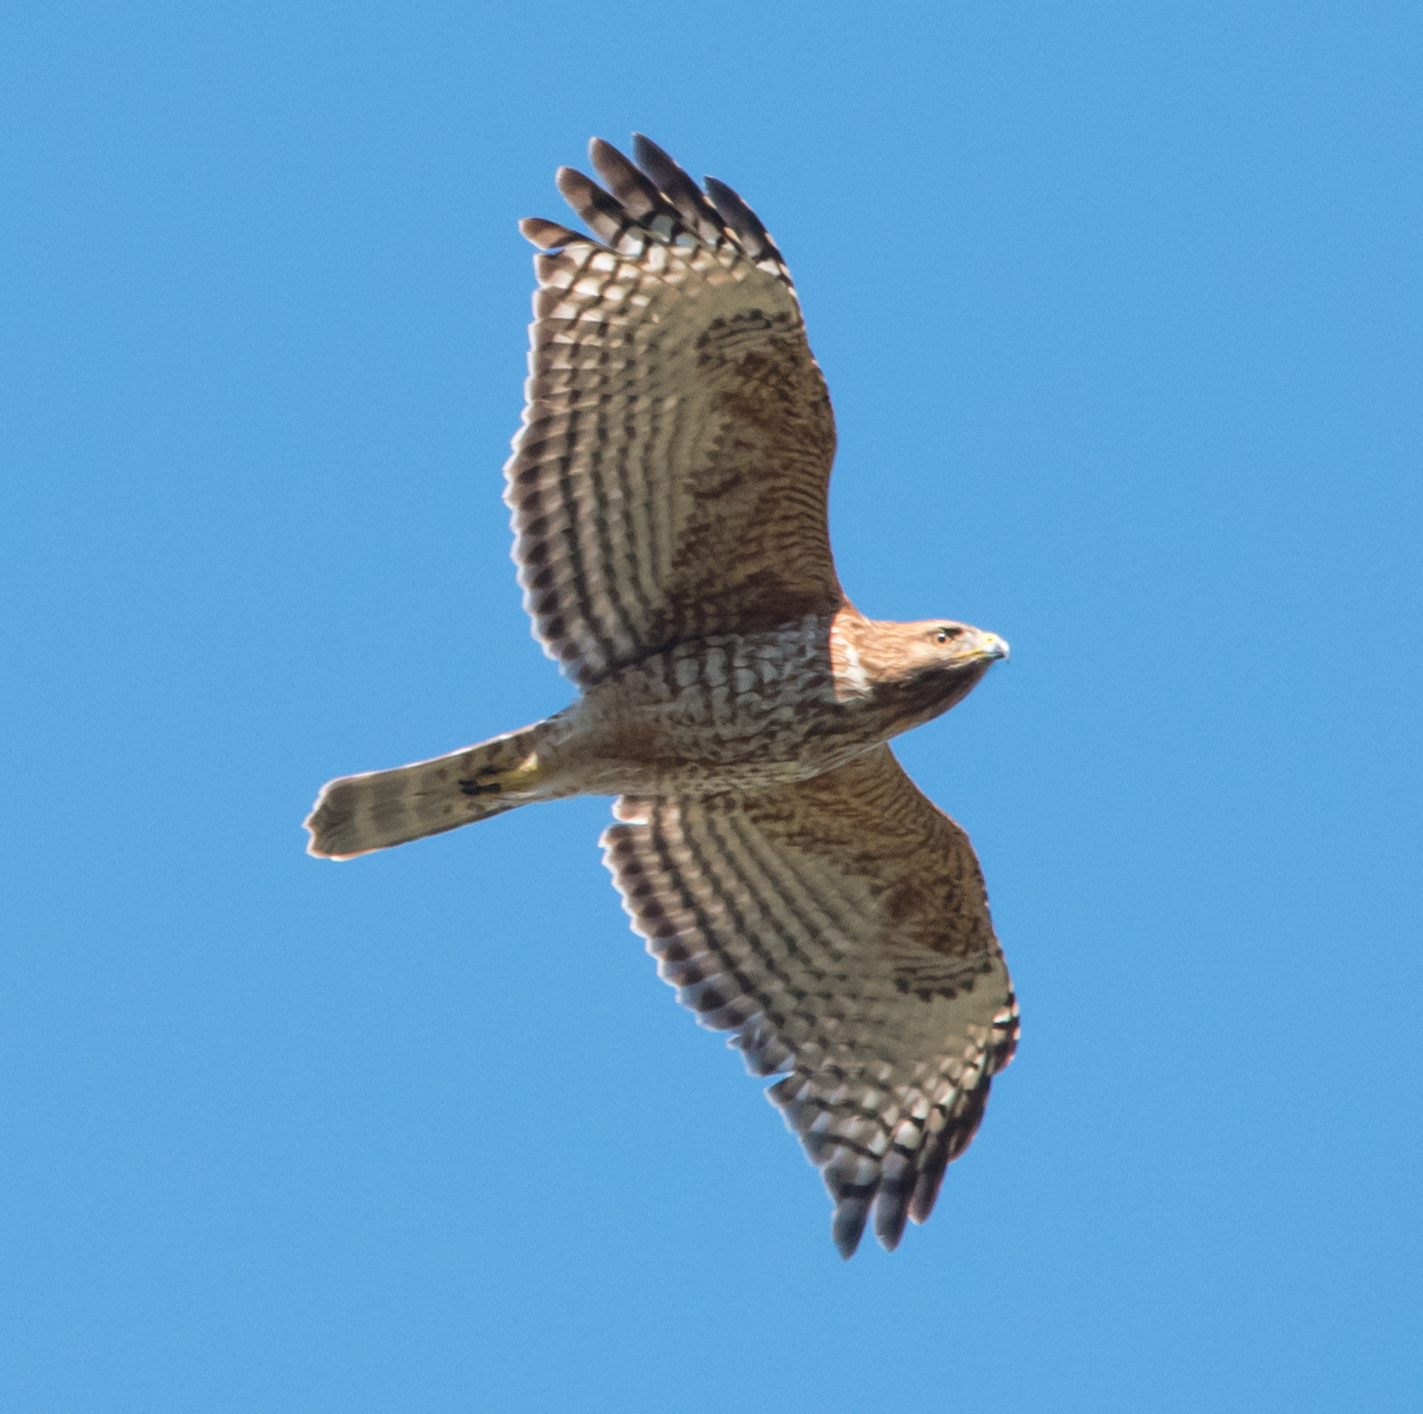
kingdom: Animalia
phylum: Chordata
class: Aves
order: Accipitriformes
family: Accipitridae
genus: Buteo
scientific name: Buteo lineatus
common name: Red-shouldered hawk
